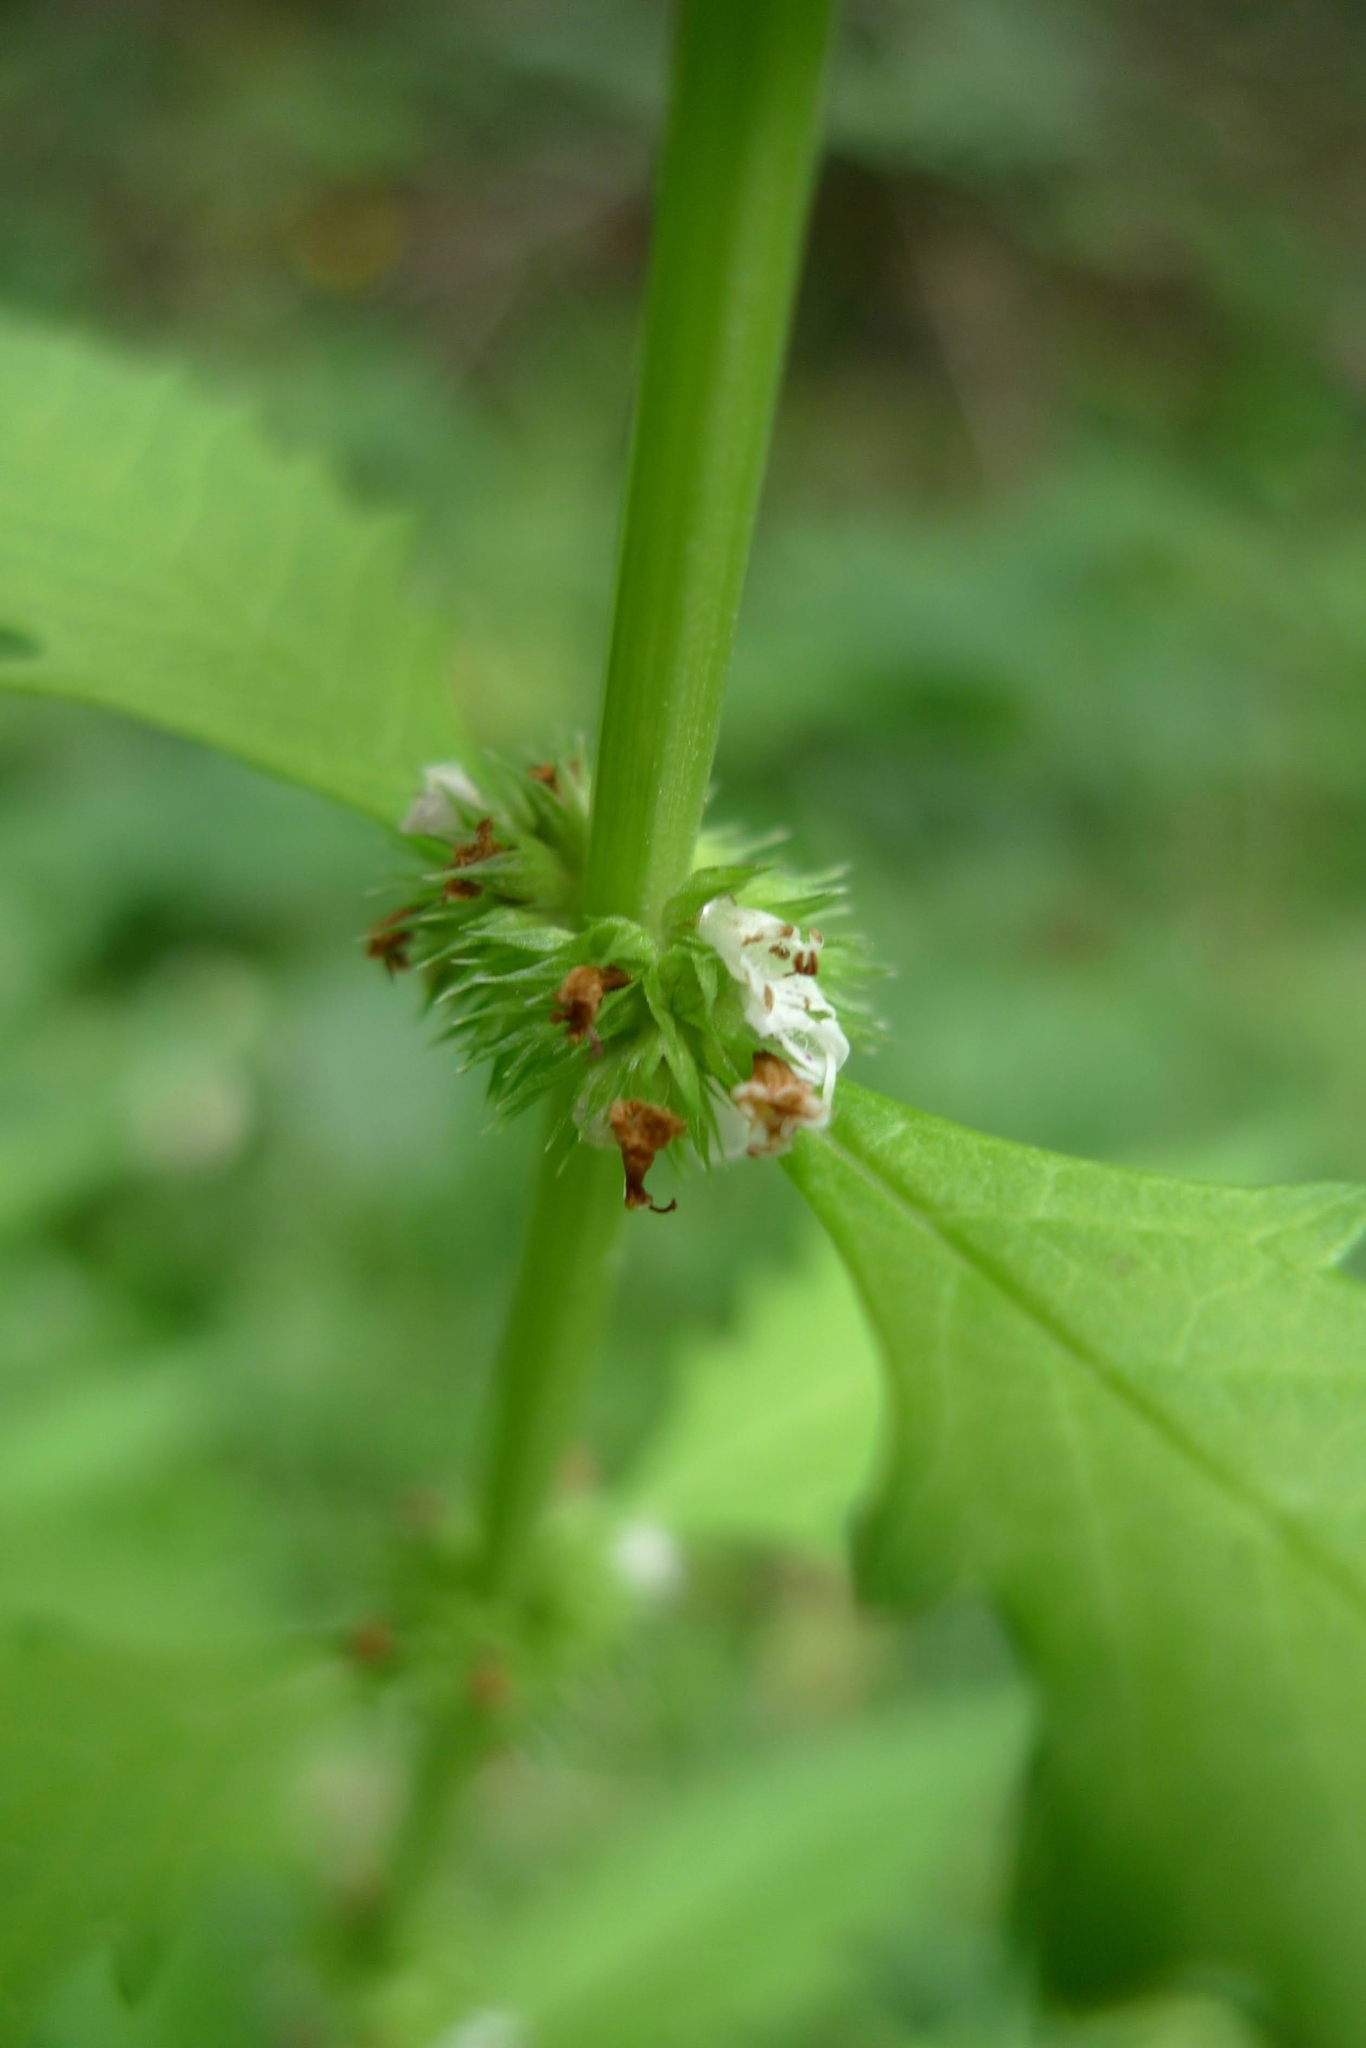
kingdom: Plantae
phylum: Tracheophyta
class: Magnoliopsida
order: Lamiales
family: Lamiaceae
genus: Lycopus
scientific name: Lycopus europaeus
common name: European bugleweed
